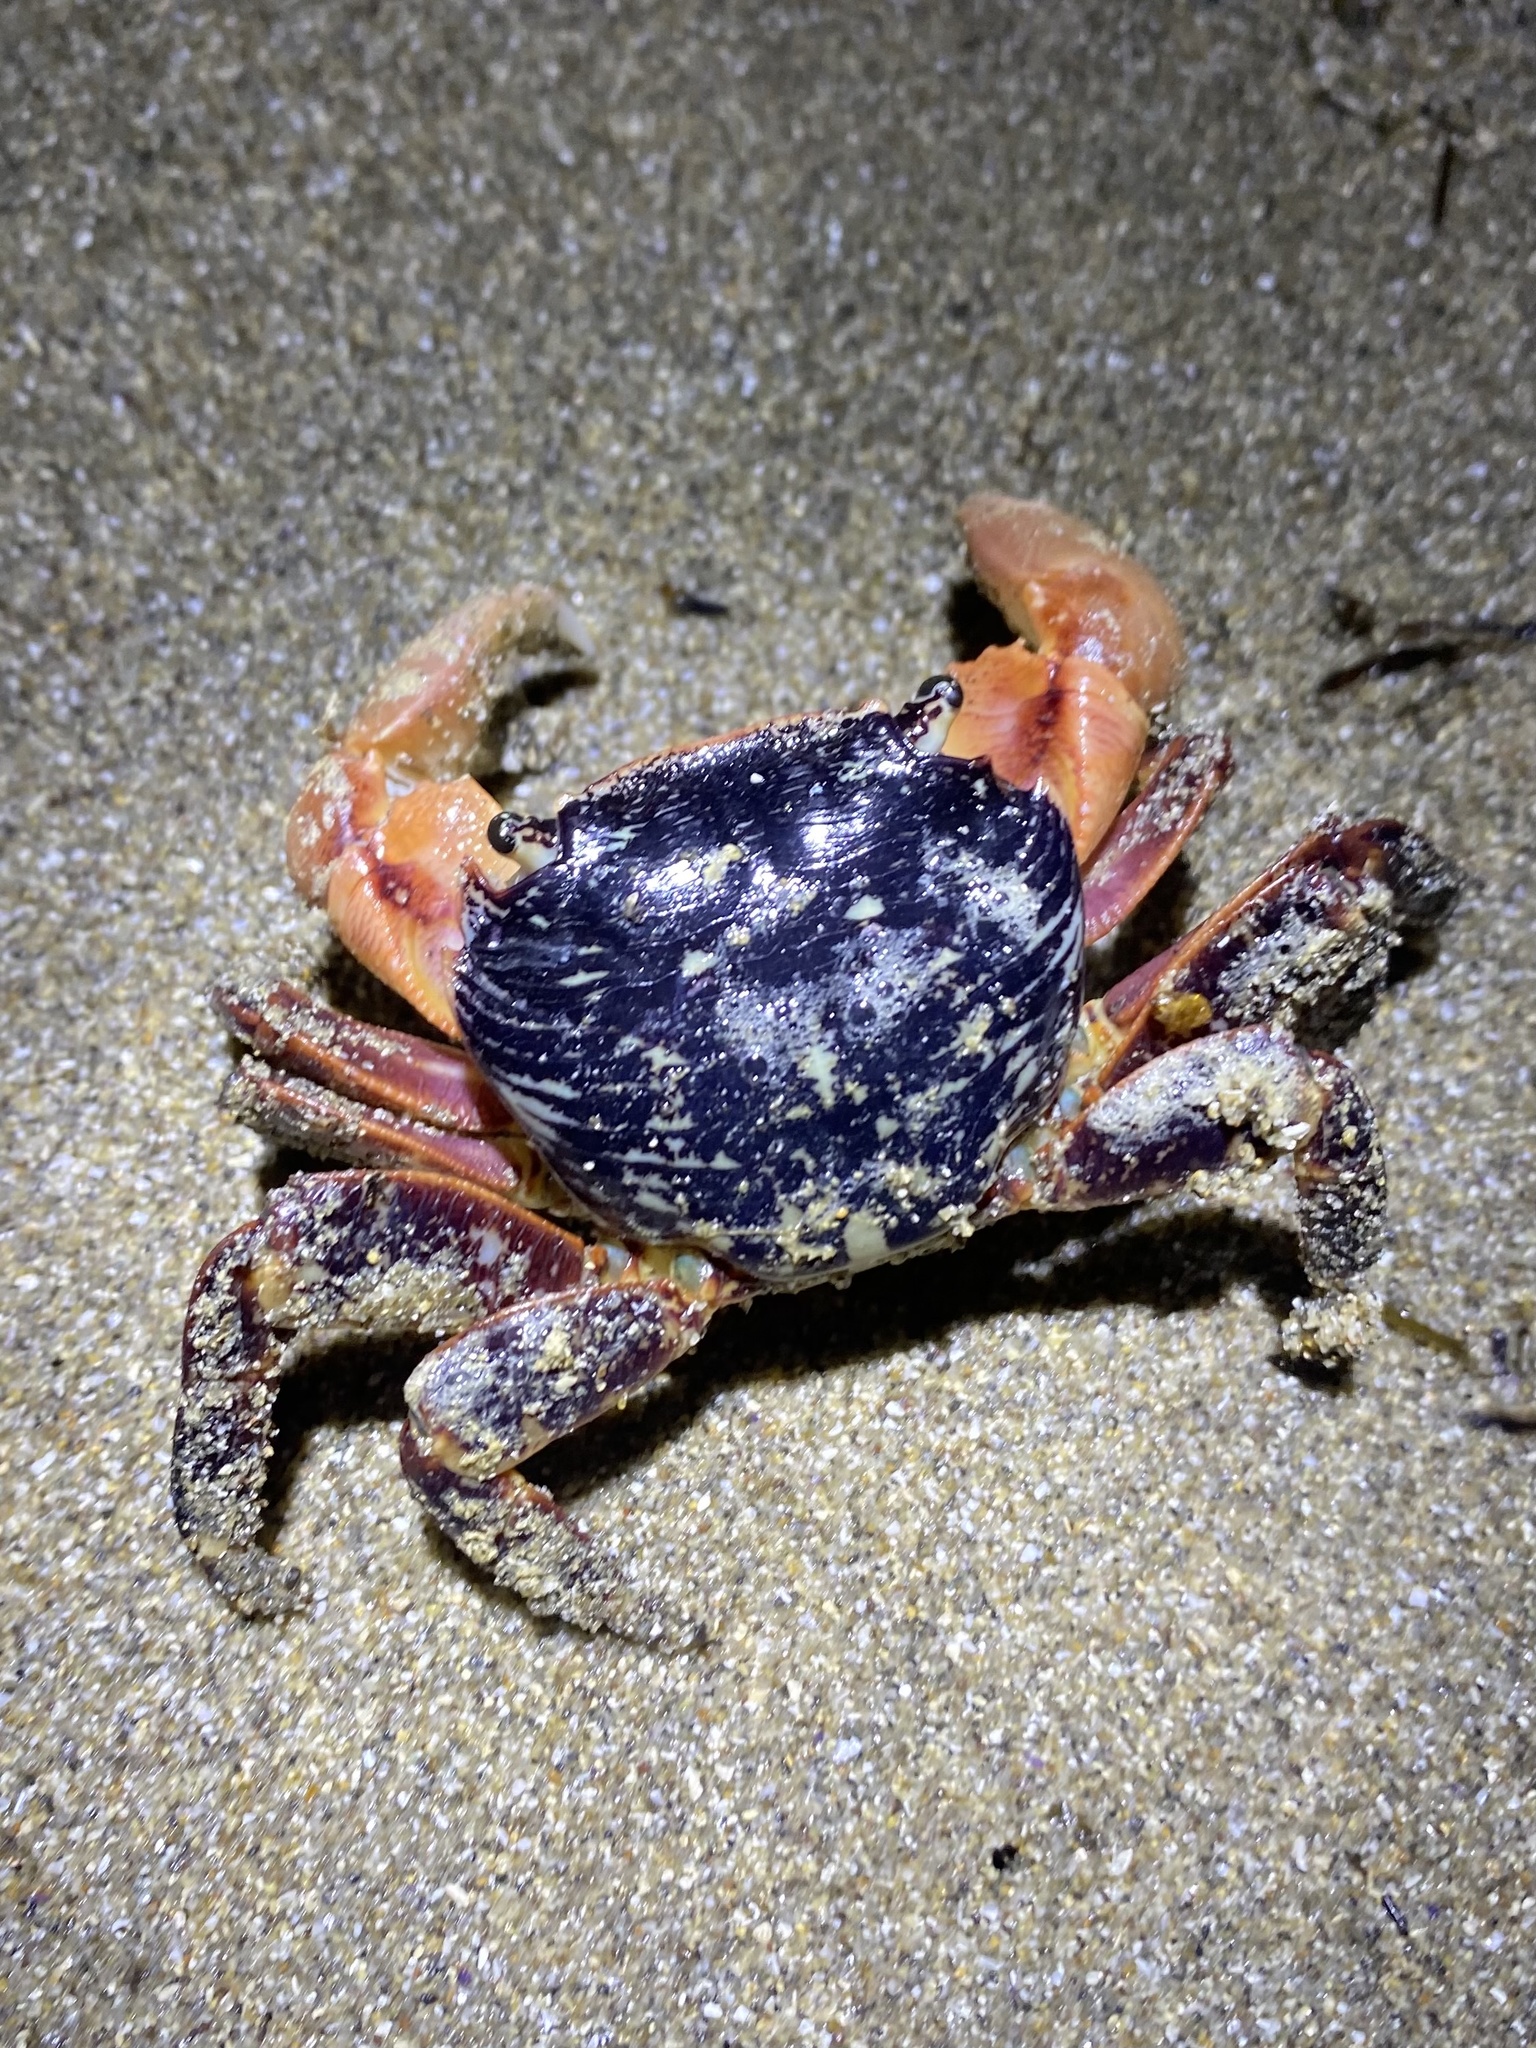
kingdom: Animalia
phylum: Arthropoda
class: Malacostraca
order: Decapoda
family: Grapsidae
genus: Pachygrapsus
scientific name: Pachygrapsus crassipes
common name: Striped shore crab
